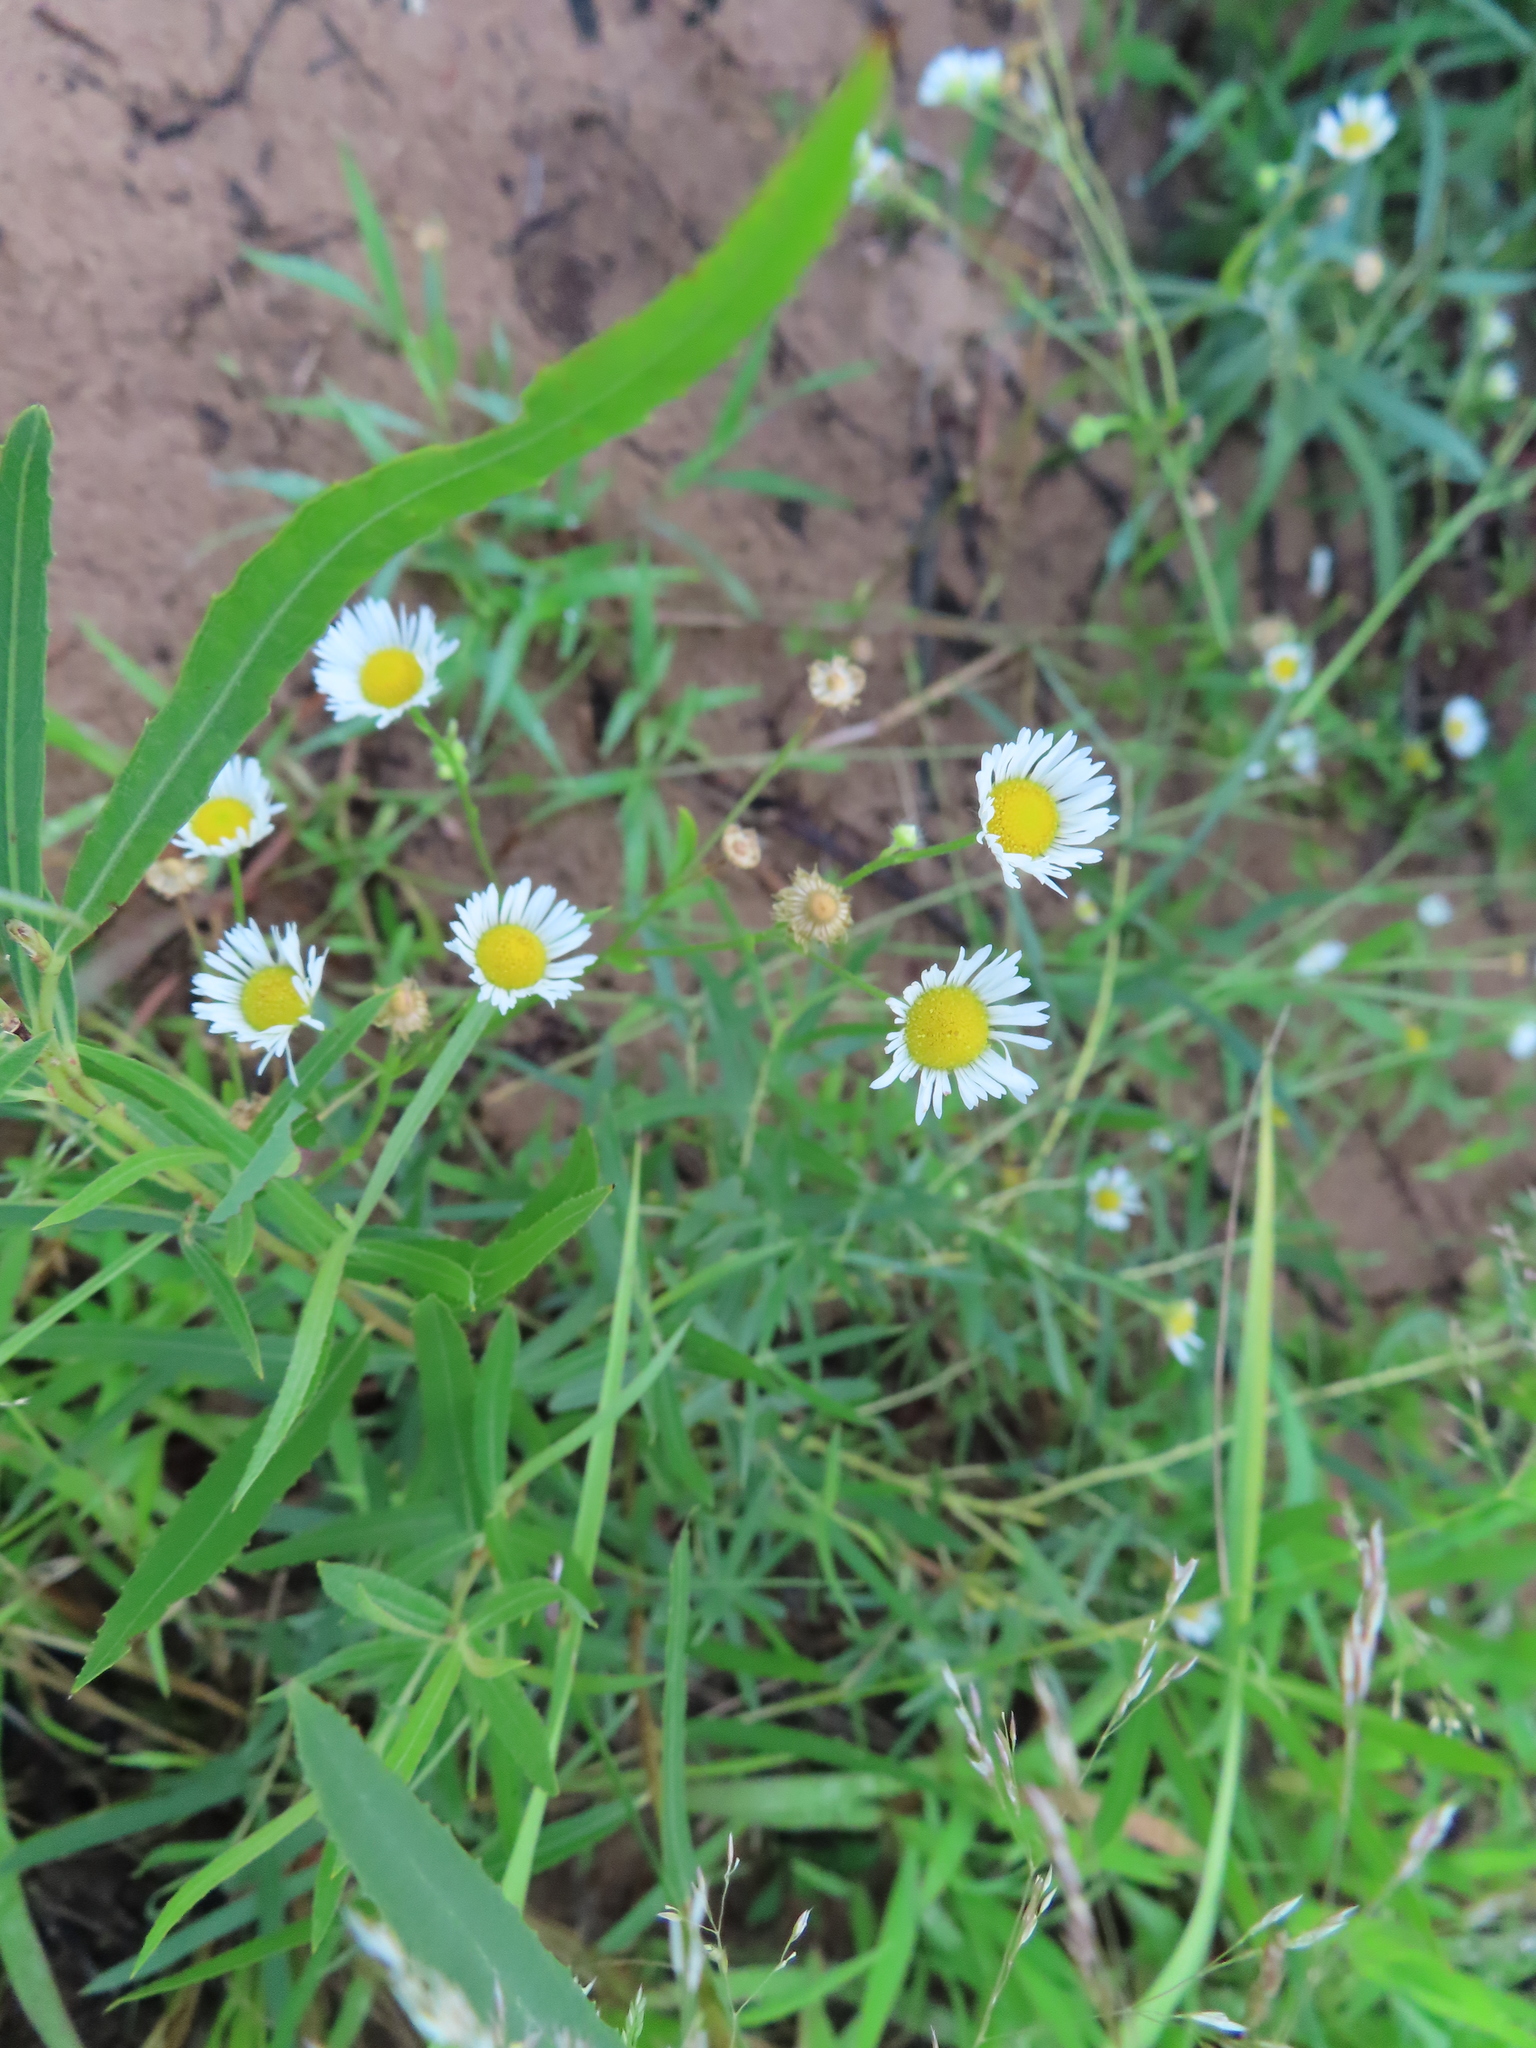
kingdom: Plantae
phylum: Tracheophyta
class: Magnoliopsida
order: Asterales
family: Asteraceae
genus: Erigeron
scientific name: Erigeron strigosus
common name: Common eastern fleabane
